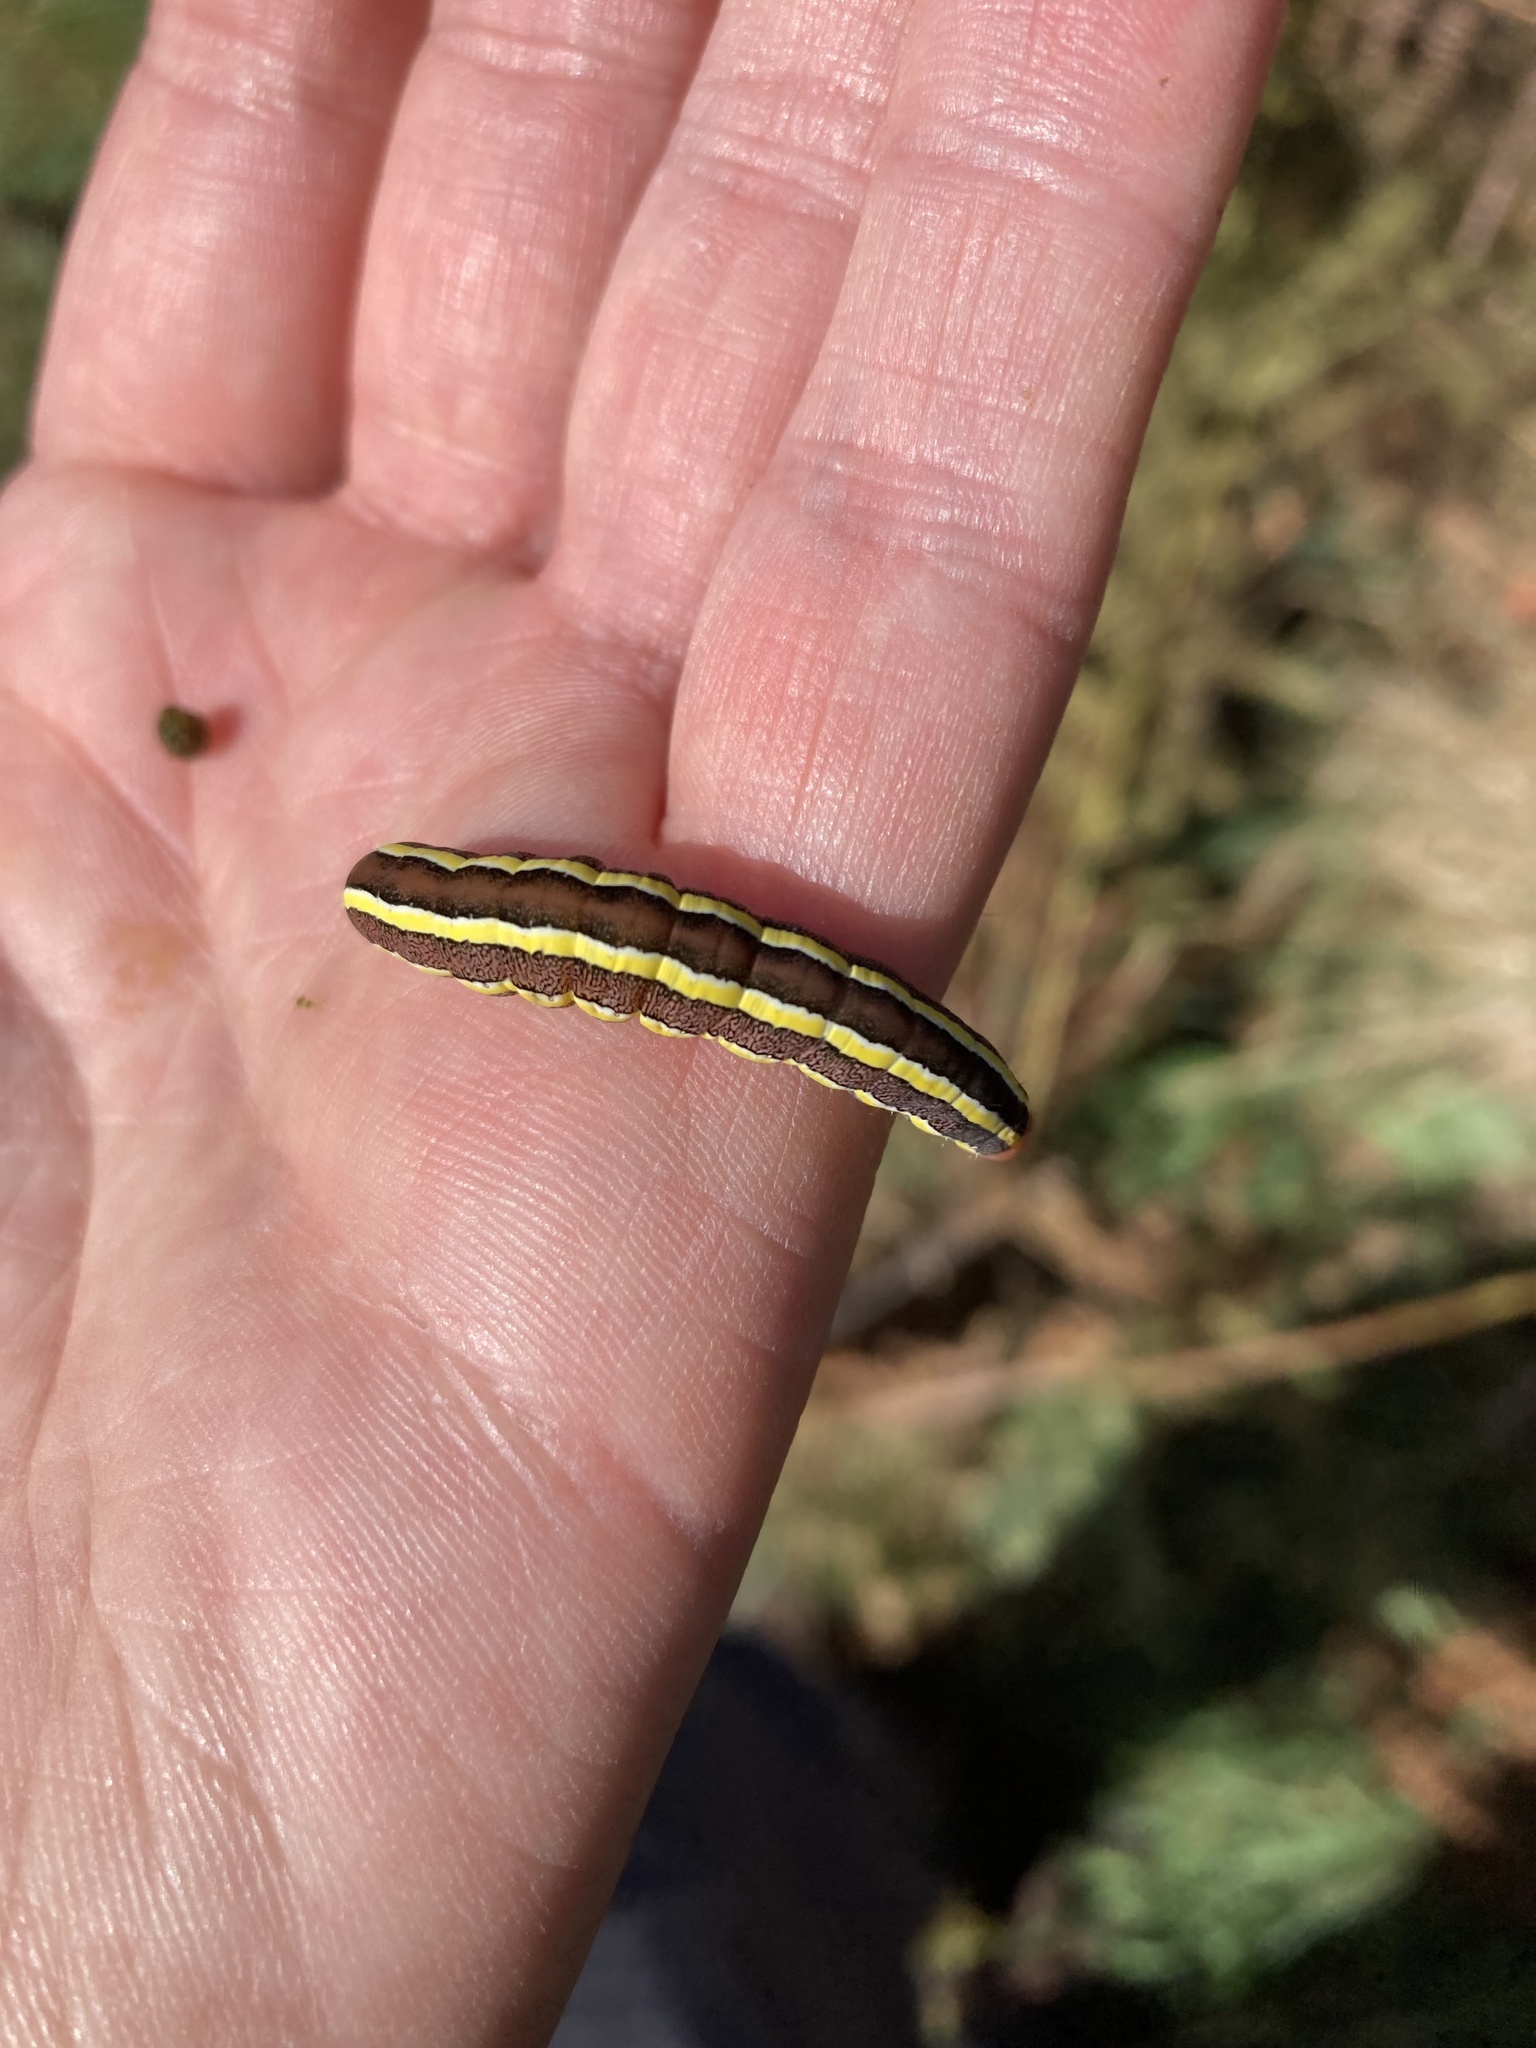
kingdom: Animalia
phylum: Arthropoda
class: Insecta
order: Lepidoptera
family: Noctuidae
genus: Ceramica
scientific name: Ceramica pisi
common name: Broom moth
